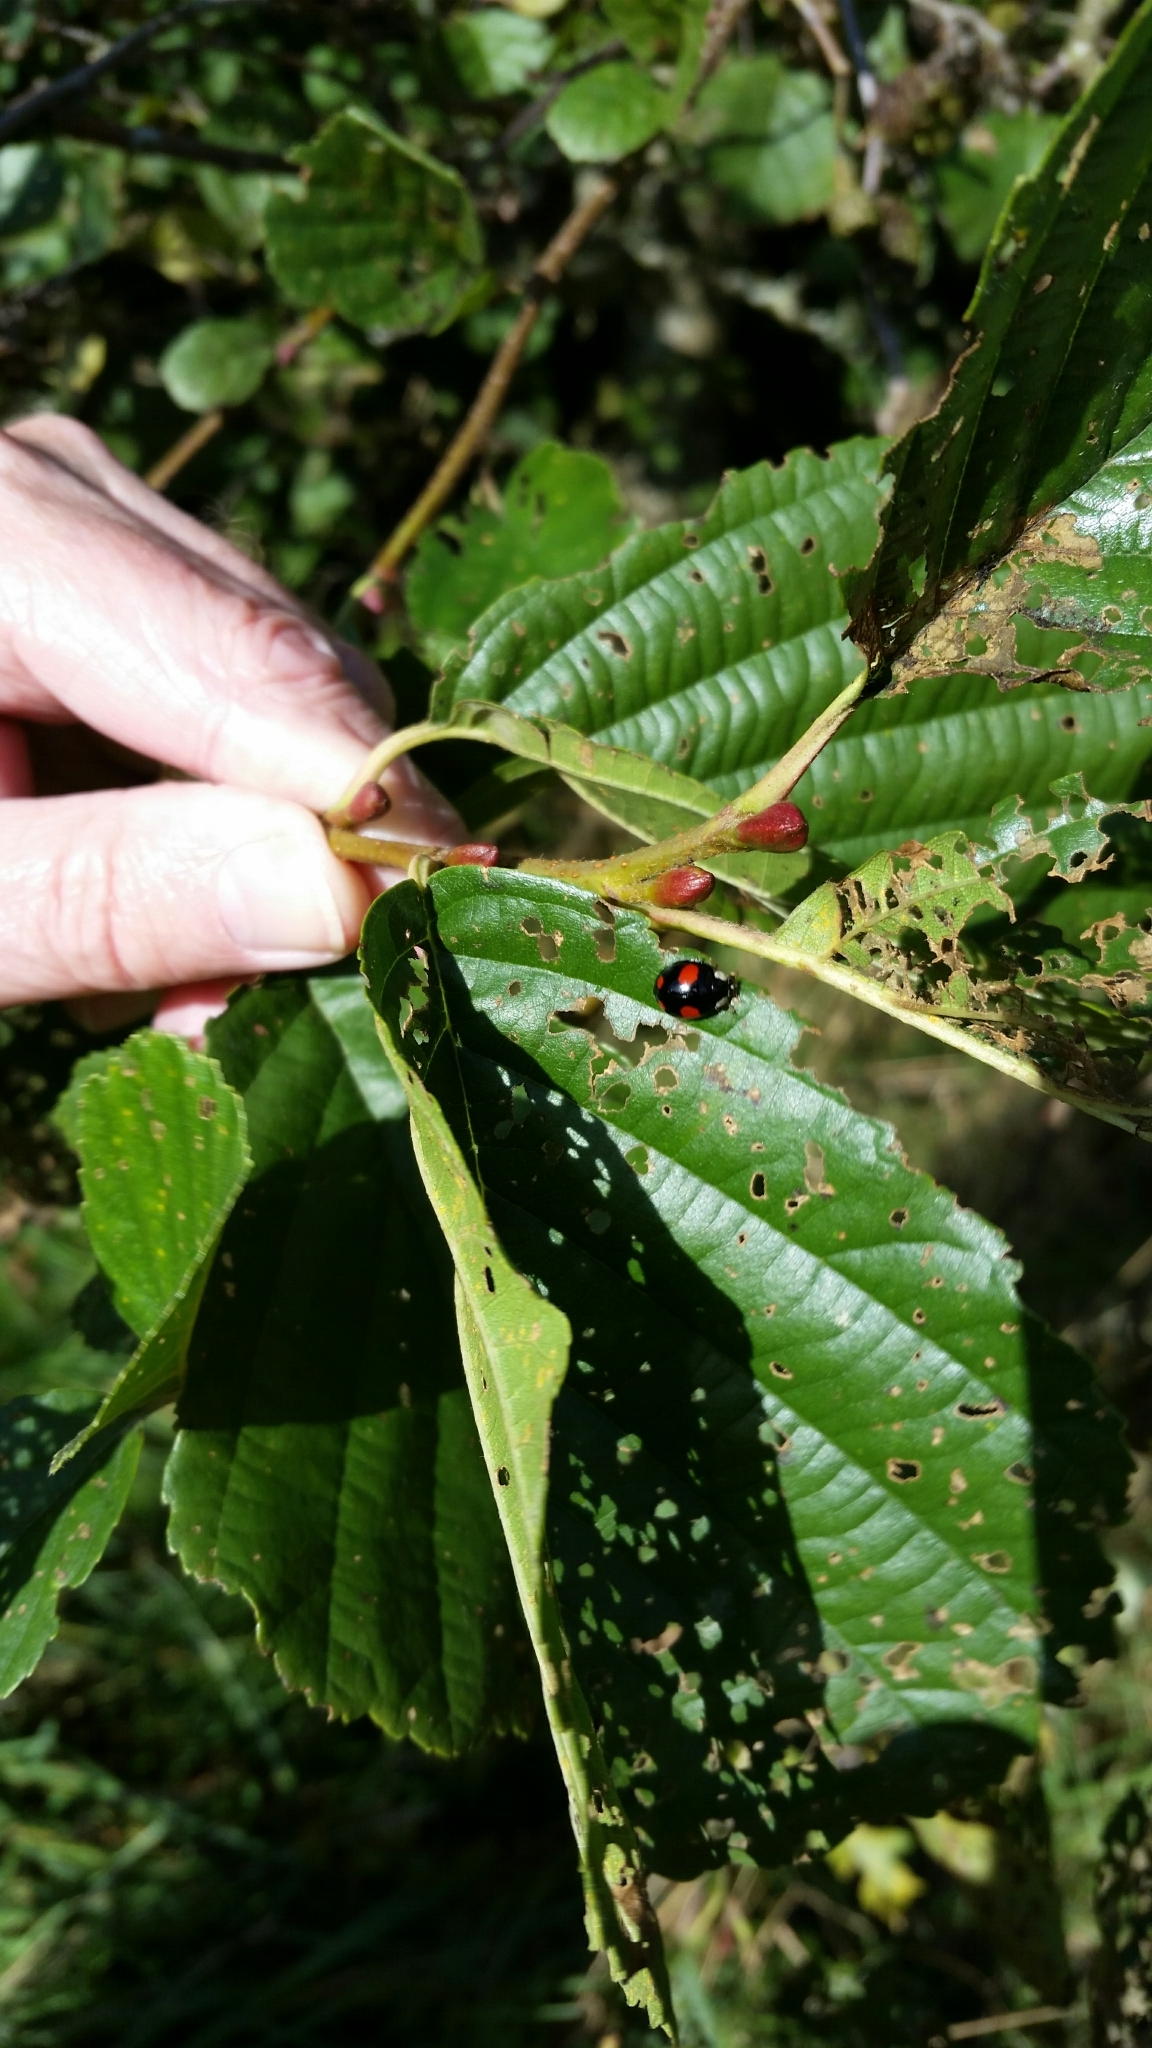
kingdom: Animalia
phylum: Arthropoda
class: Insecta
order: Coleoptera
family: Coccinellidae
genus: Harmonia
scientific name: Harmonia axyridis
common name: Harlequin ladybird
